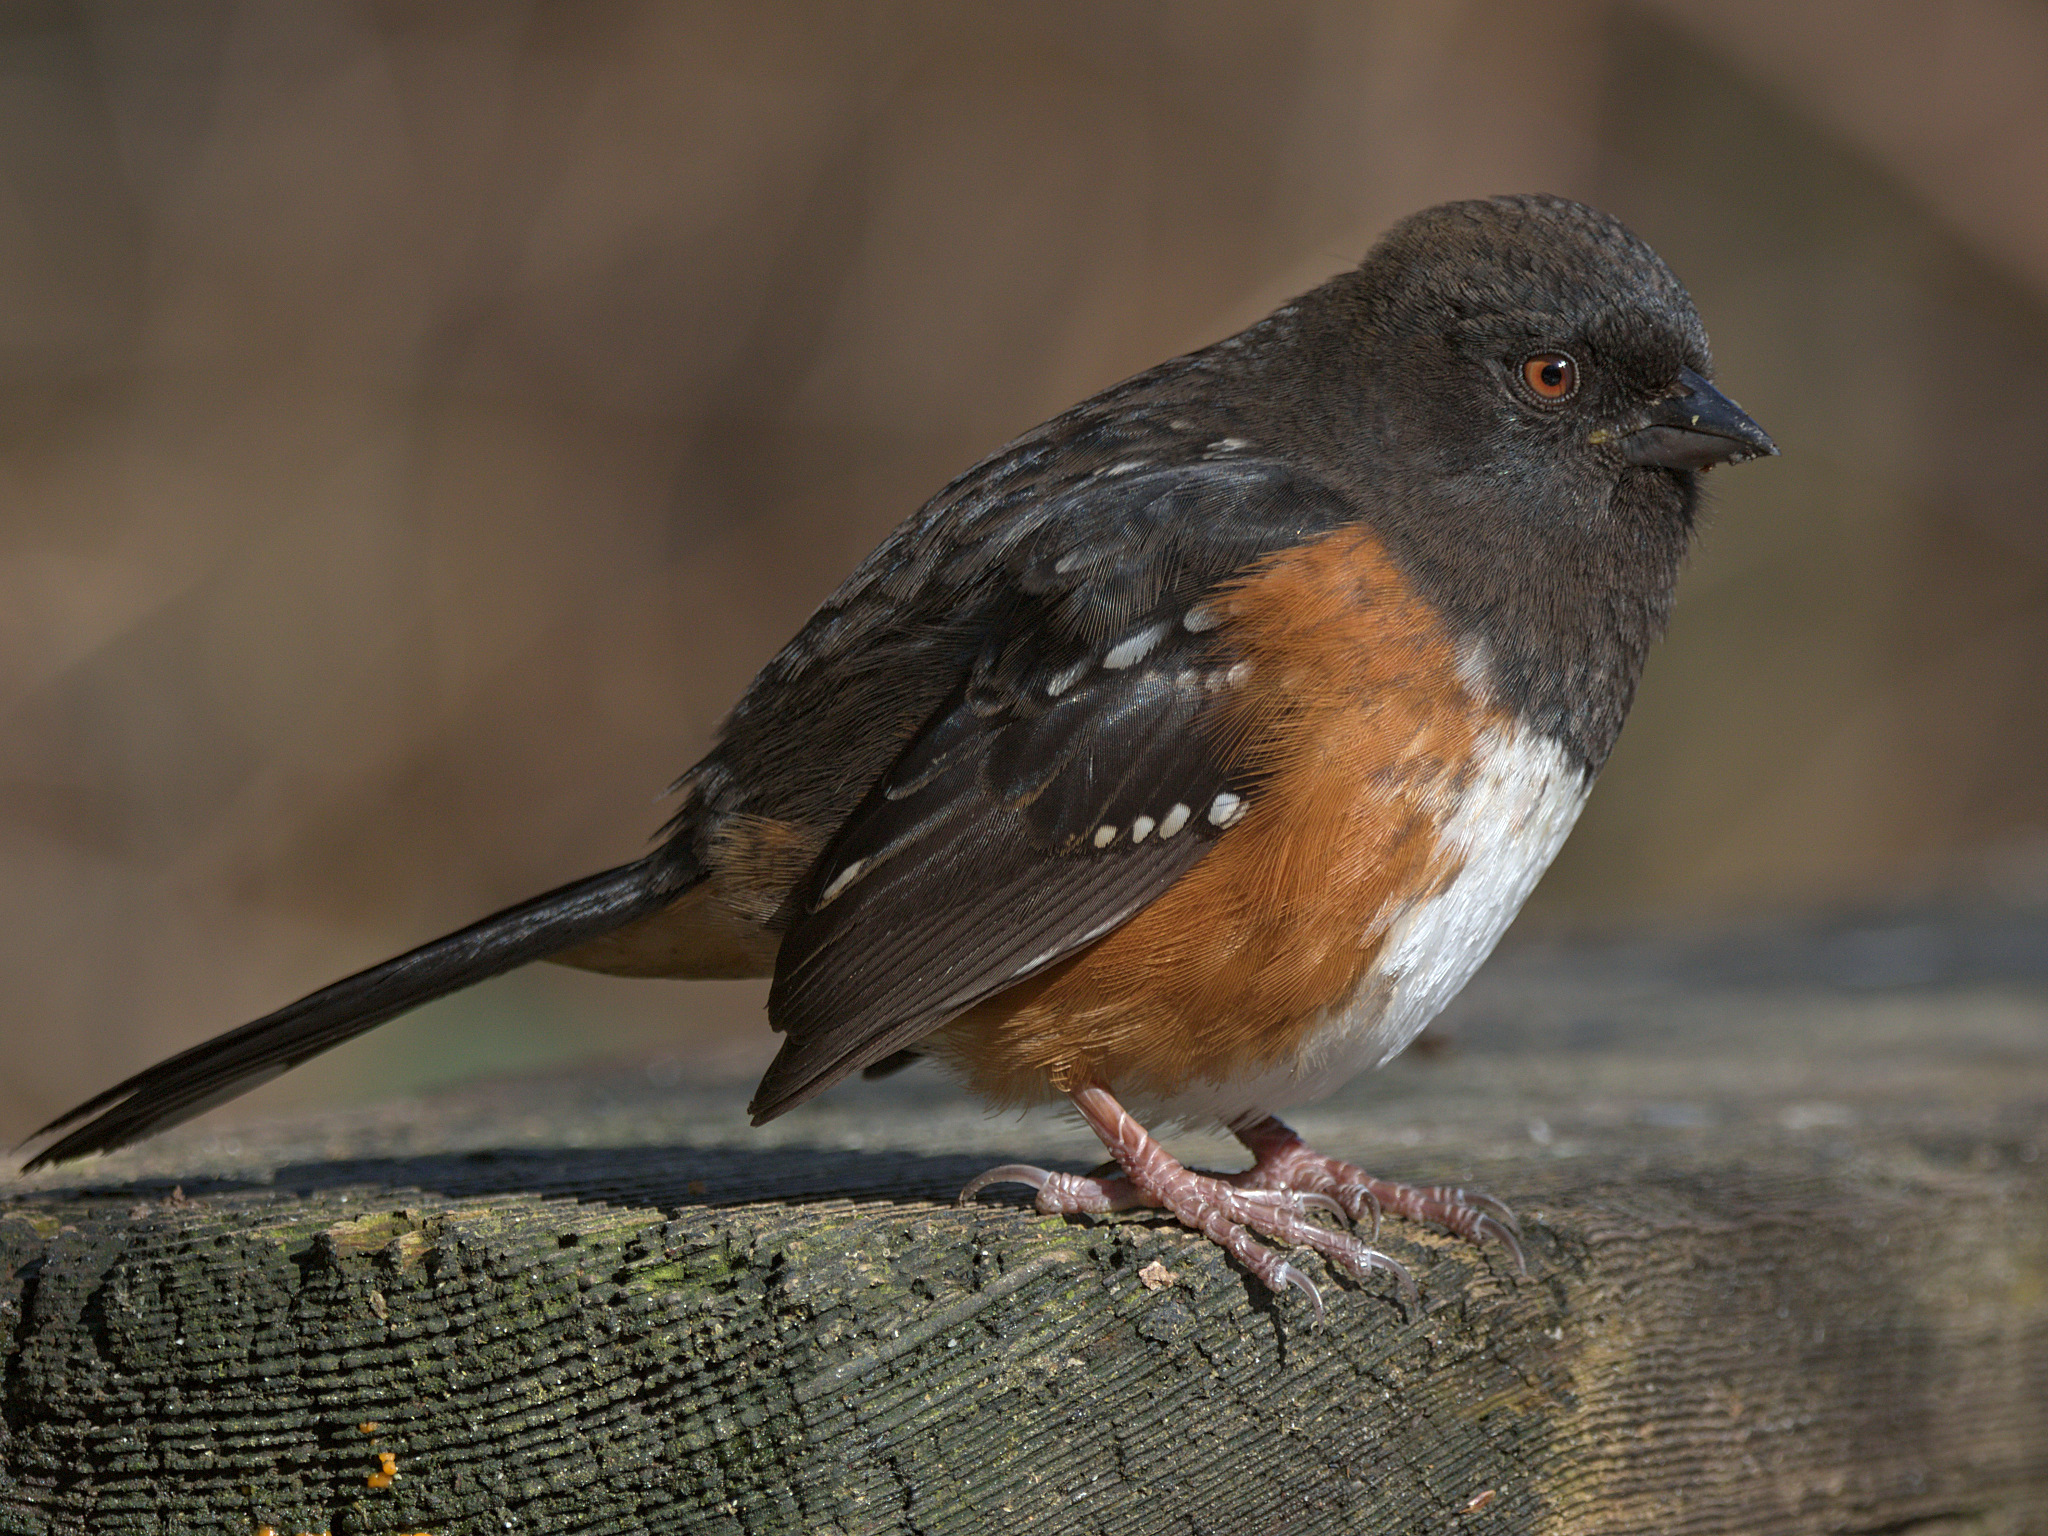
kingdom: Animalia
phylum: Chordata
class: Aves
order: Passeriformes
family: Passerellidae
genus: Pipilo
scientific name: Pipilo maculatus
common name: Spotted towhee
